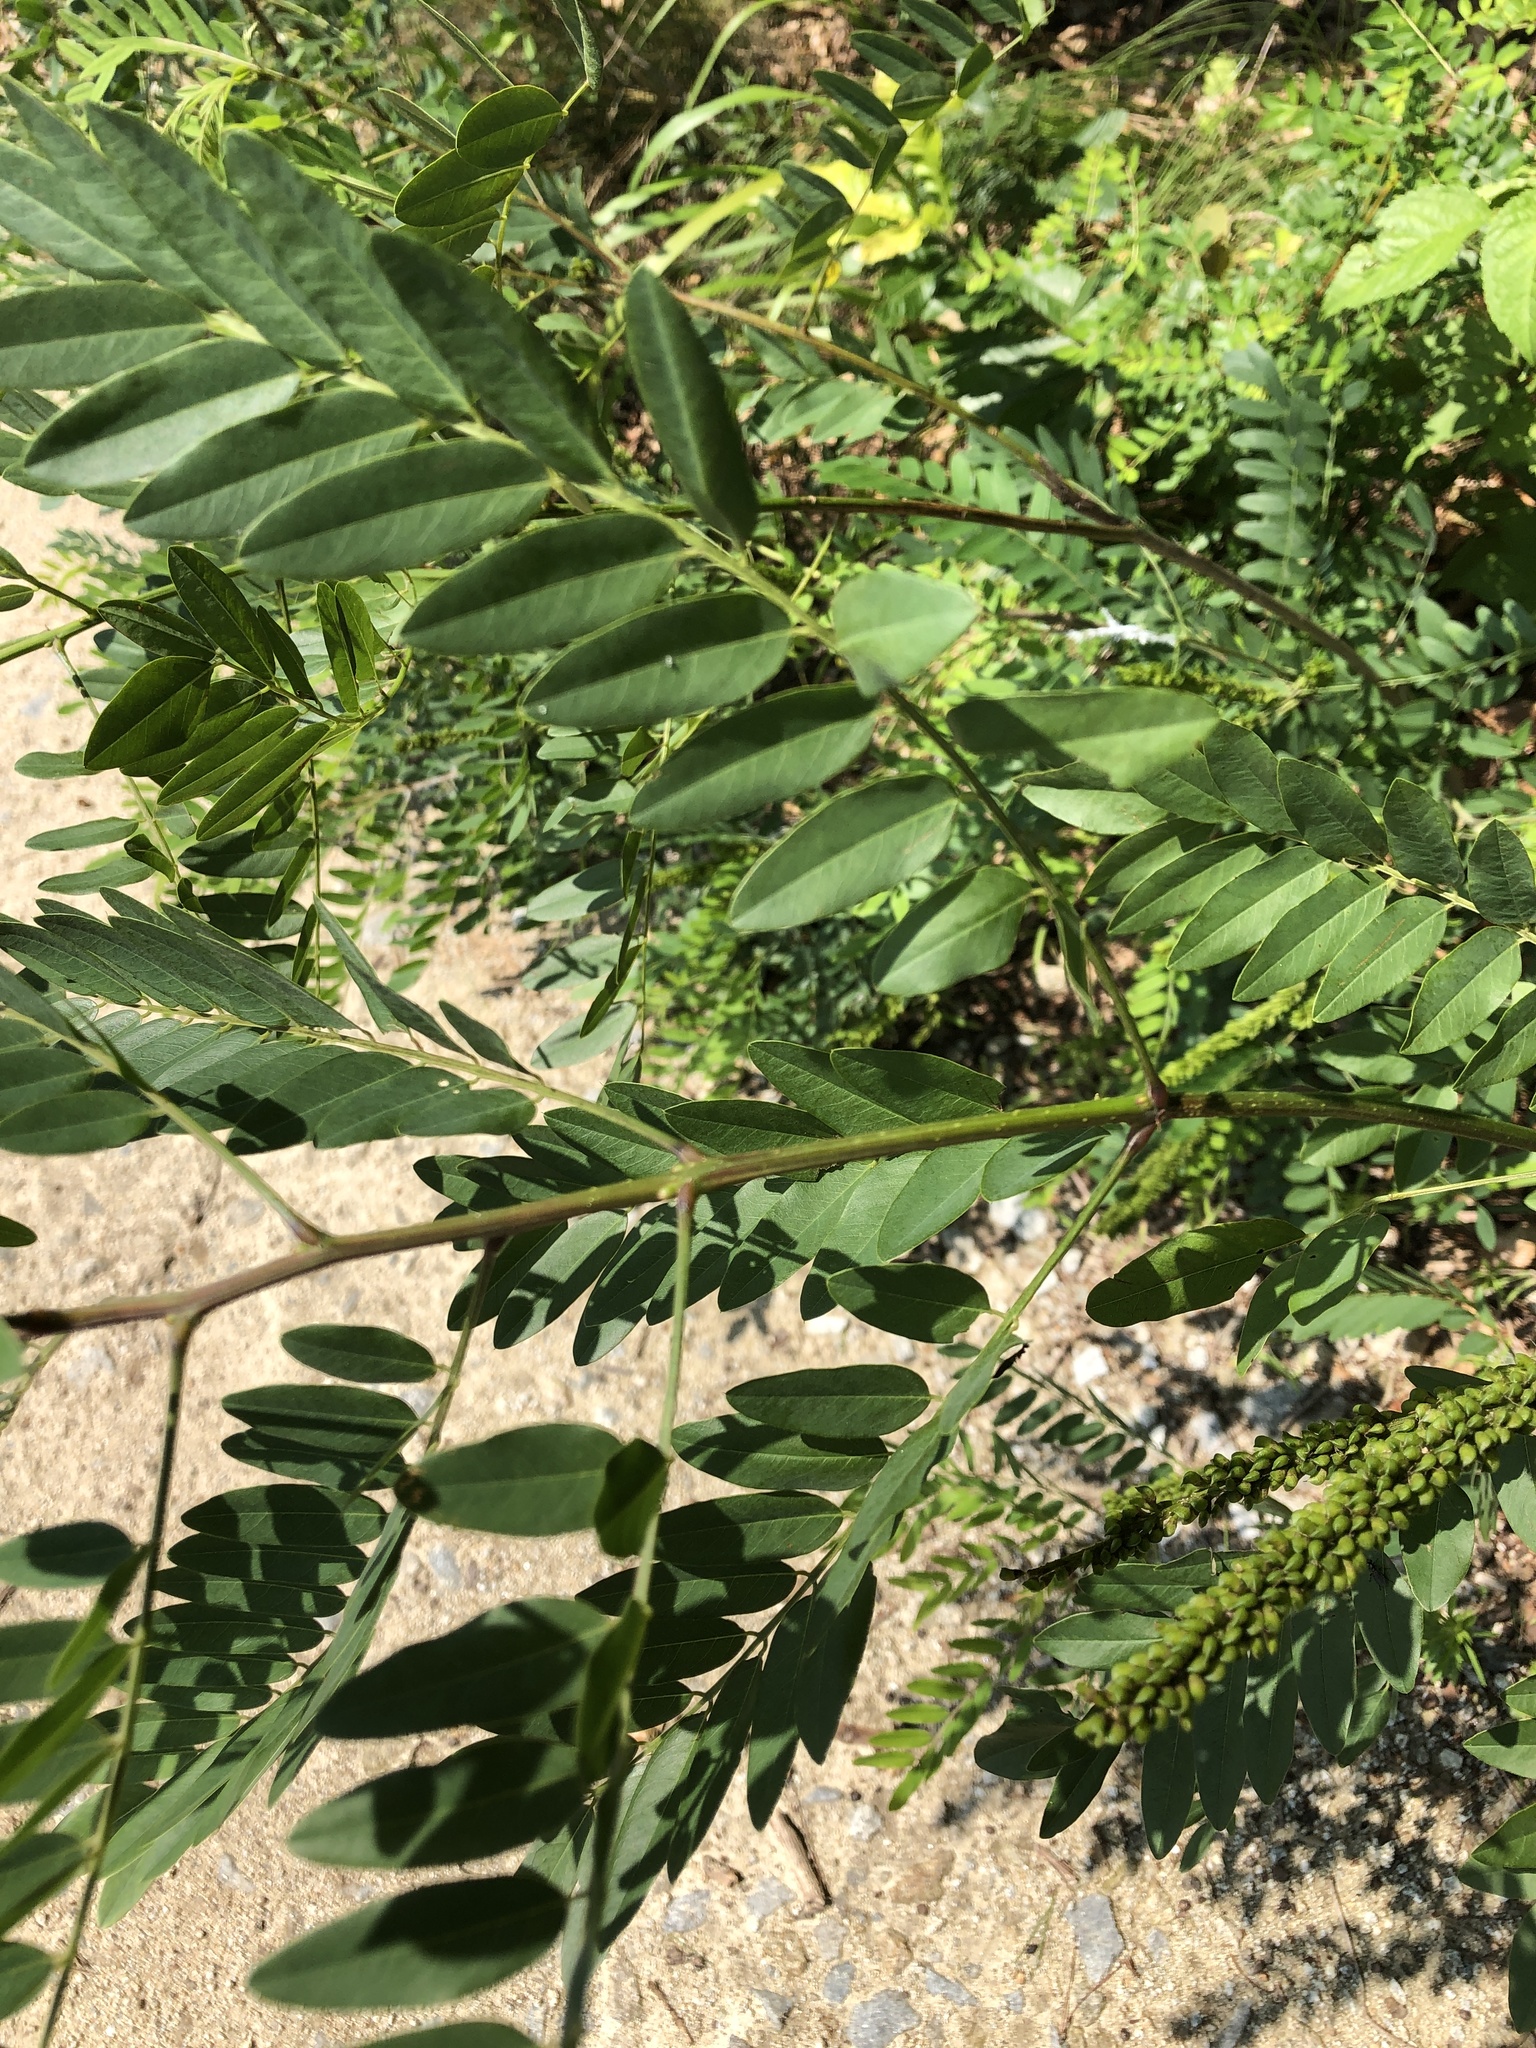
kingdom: Plantae
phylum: Tracheophyta
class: Magnoliopsida
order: Fabales
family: Fabaceae
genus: Amorpha
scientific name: Amorpha fruticosa
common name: False indigo
